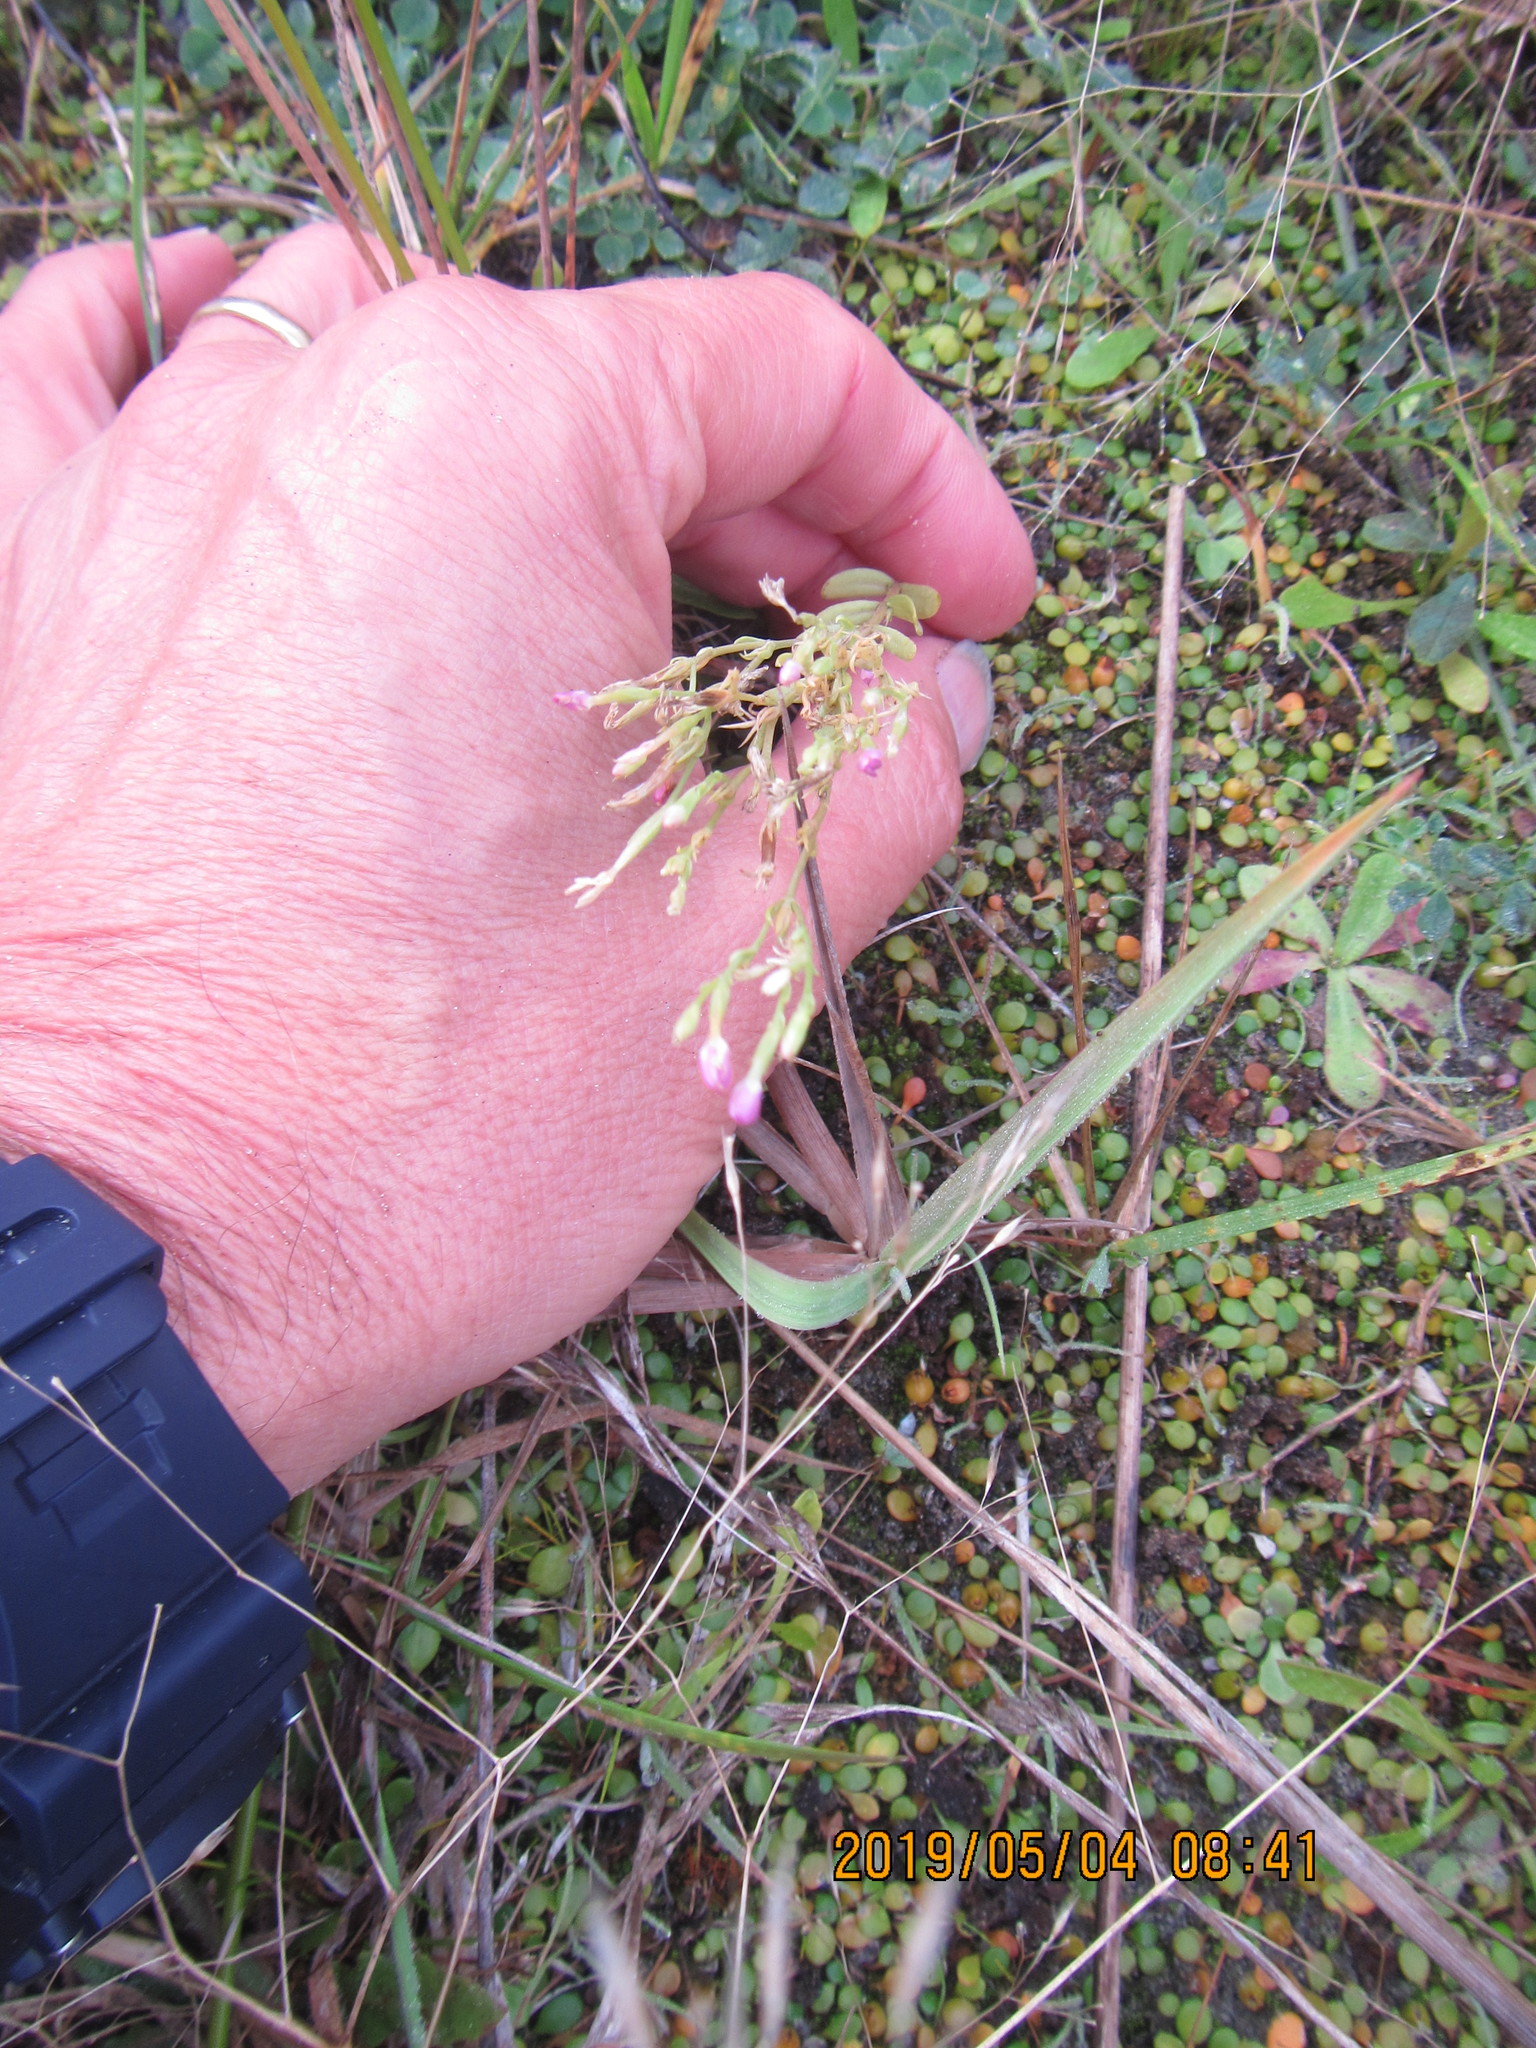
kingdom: Plantae
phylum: Tracheophyta
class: Magnoliopsida
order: Gentianales
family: Gentianaceae
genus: Centaurium
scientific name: Centaurium erythraea
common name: Common centaury
